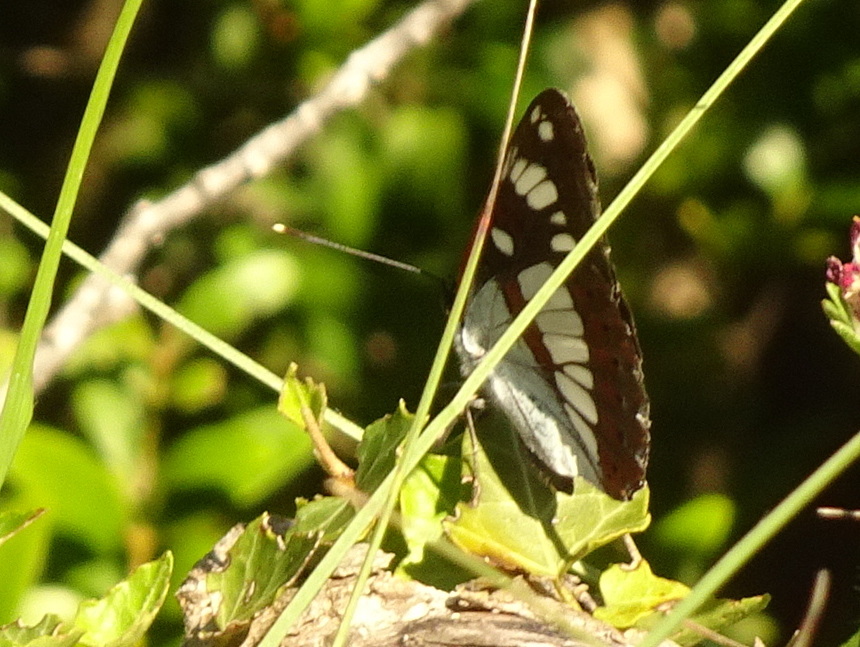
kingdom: Animalia
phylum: Arthropoda
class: Insecta
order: Lepidoptera
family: Nymphalidae
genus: Limenitis
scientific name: Limenitis reducta
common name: Southern white admiral
